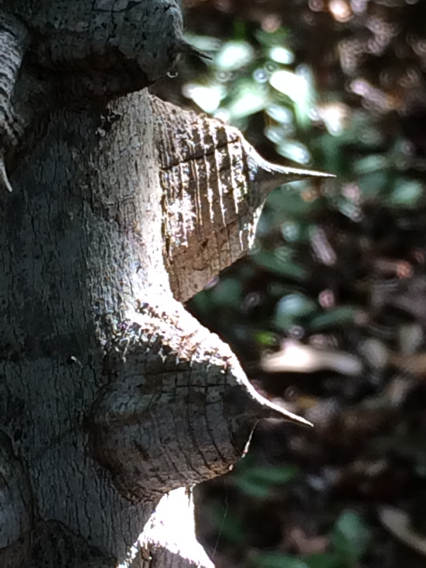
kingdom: Plantae
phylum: Tracheophyta
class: Magnoliopsida
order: Sapindales
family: Rutaceae
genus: Zanthoxylum
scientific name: Zanthoxylum clava-herculis
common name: Hercules'-club
